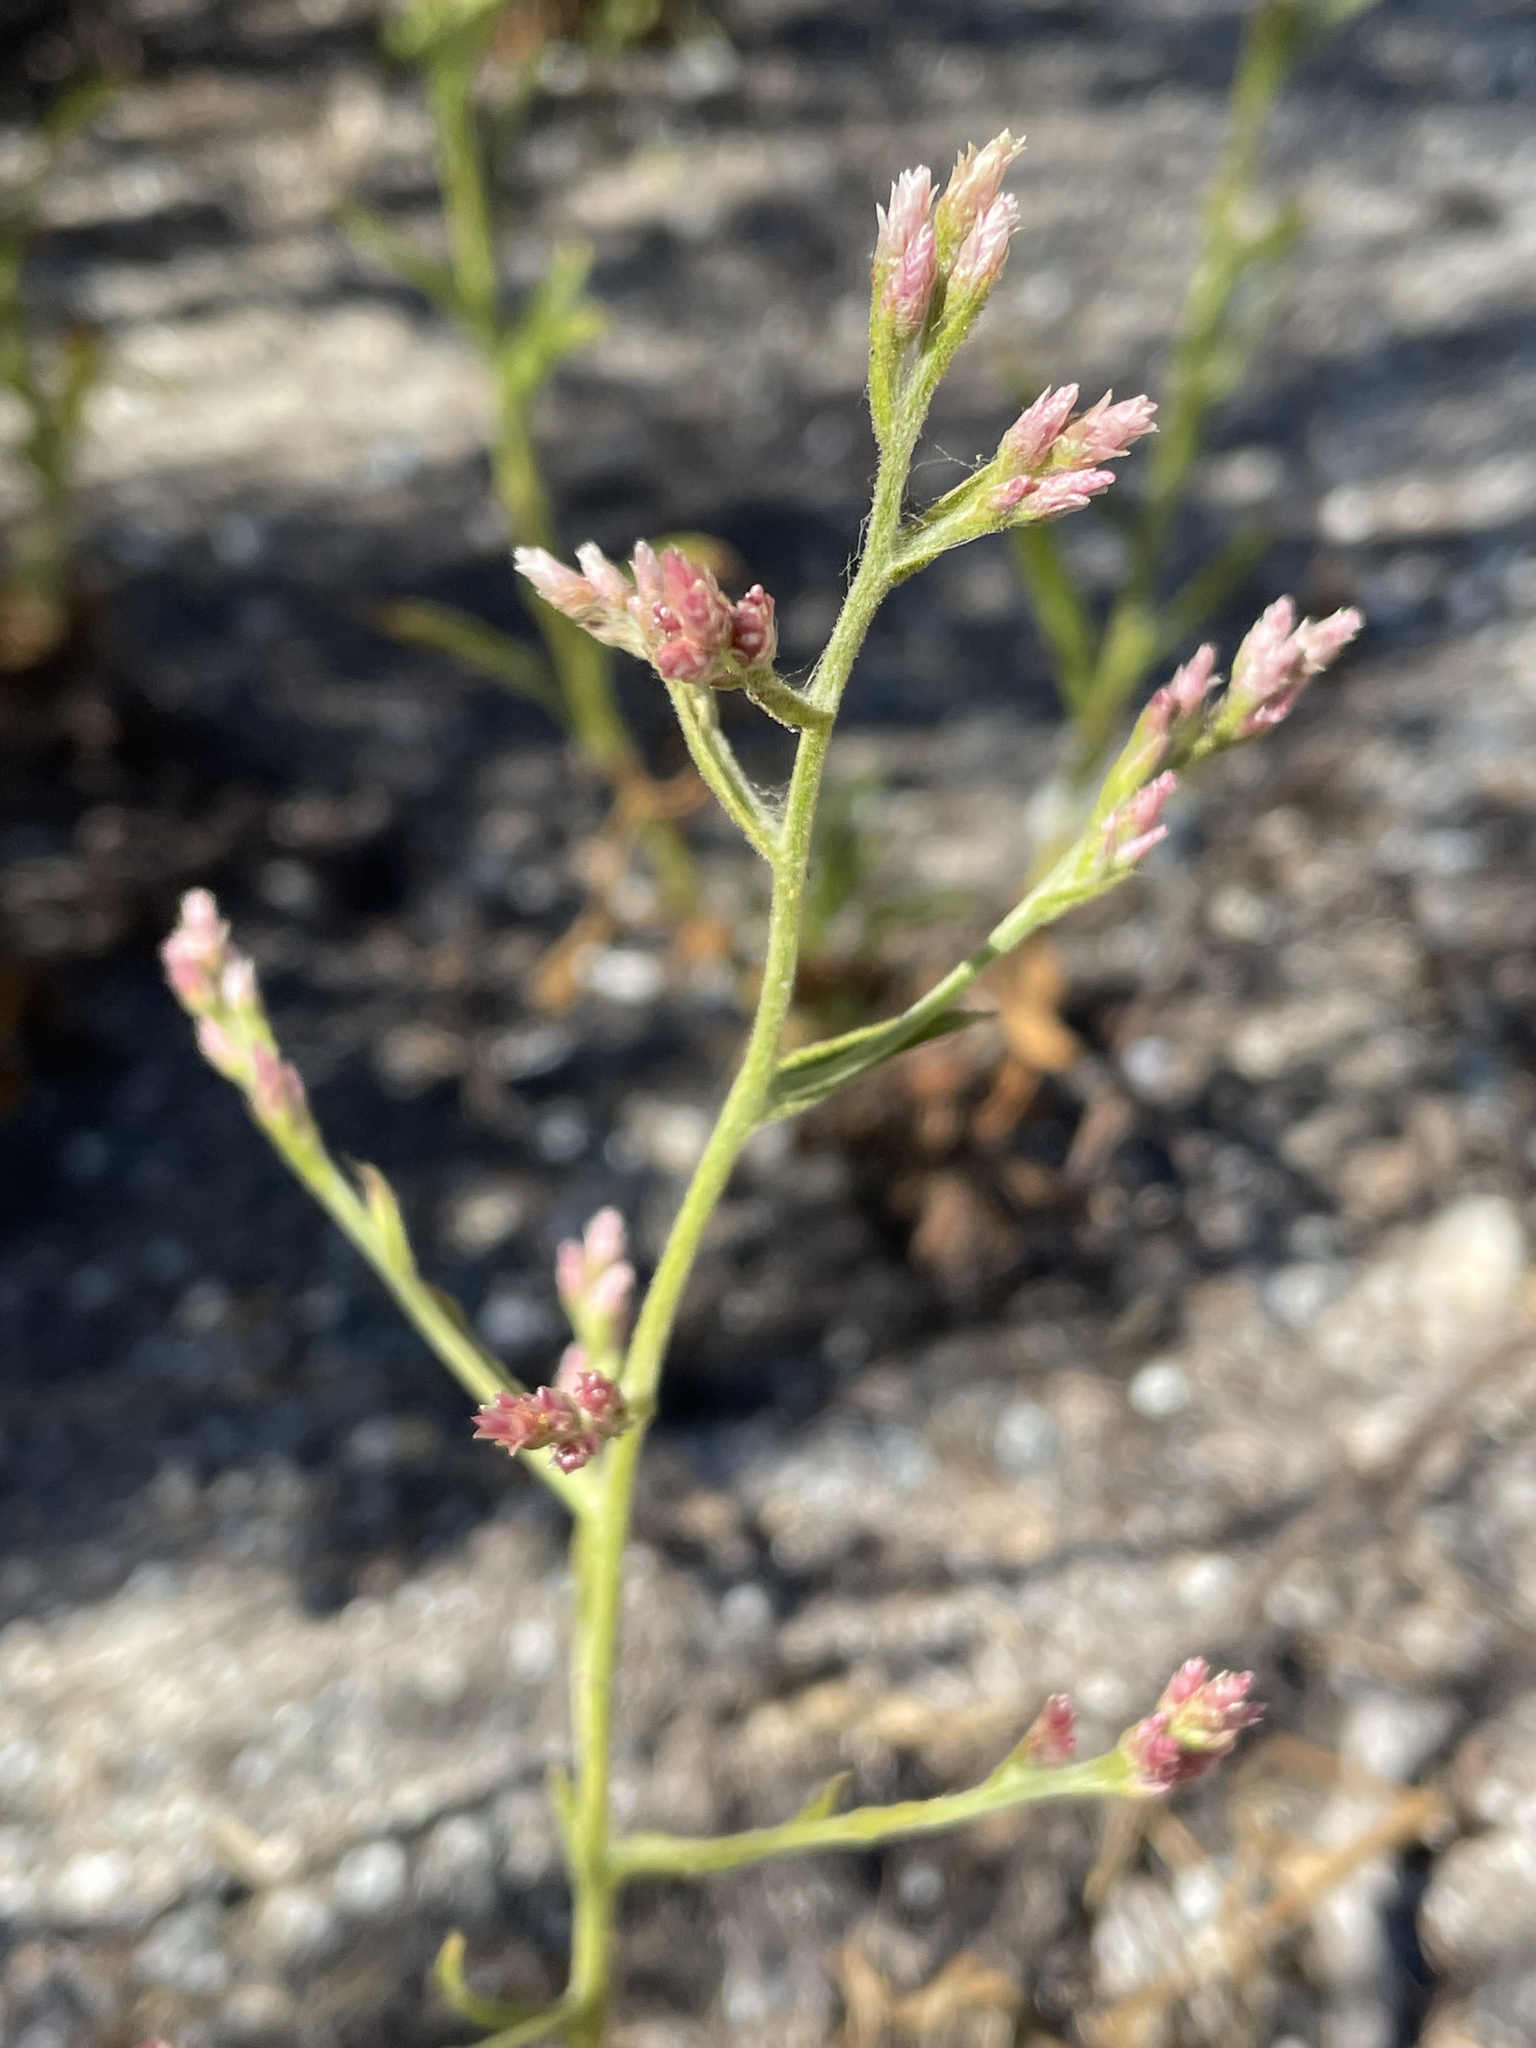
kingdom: Plantae
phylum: Tracheophyta
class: Magnoliopsida
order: Asterales
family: Asteraceae
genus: Pseudognaphalium
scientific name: Pseudognaphalium ramosissimum
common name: Pink rabbit-tobacco
